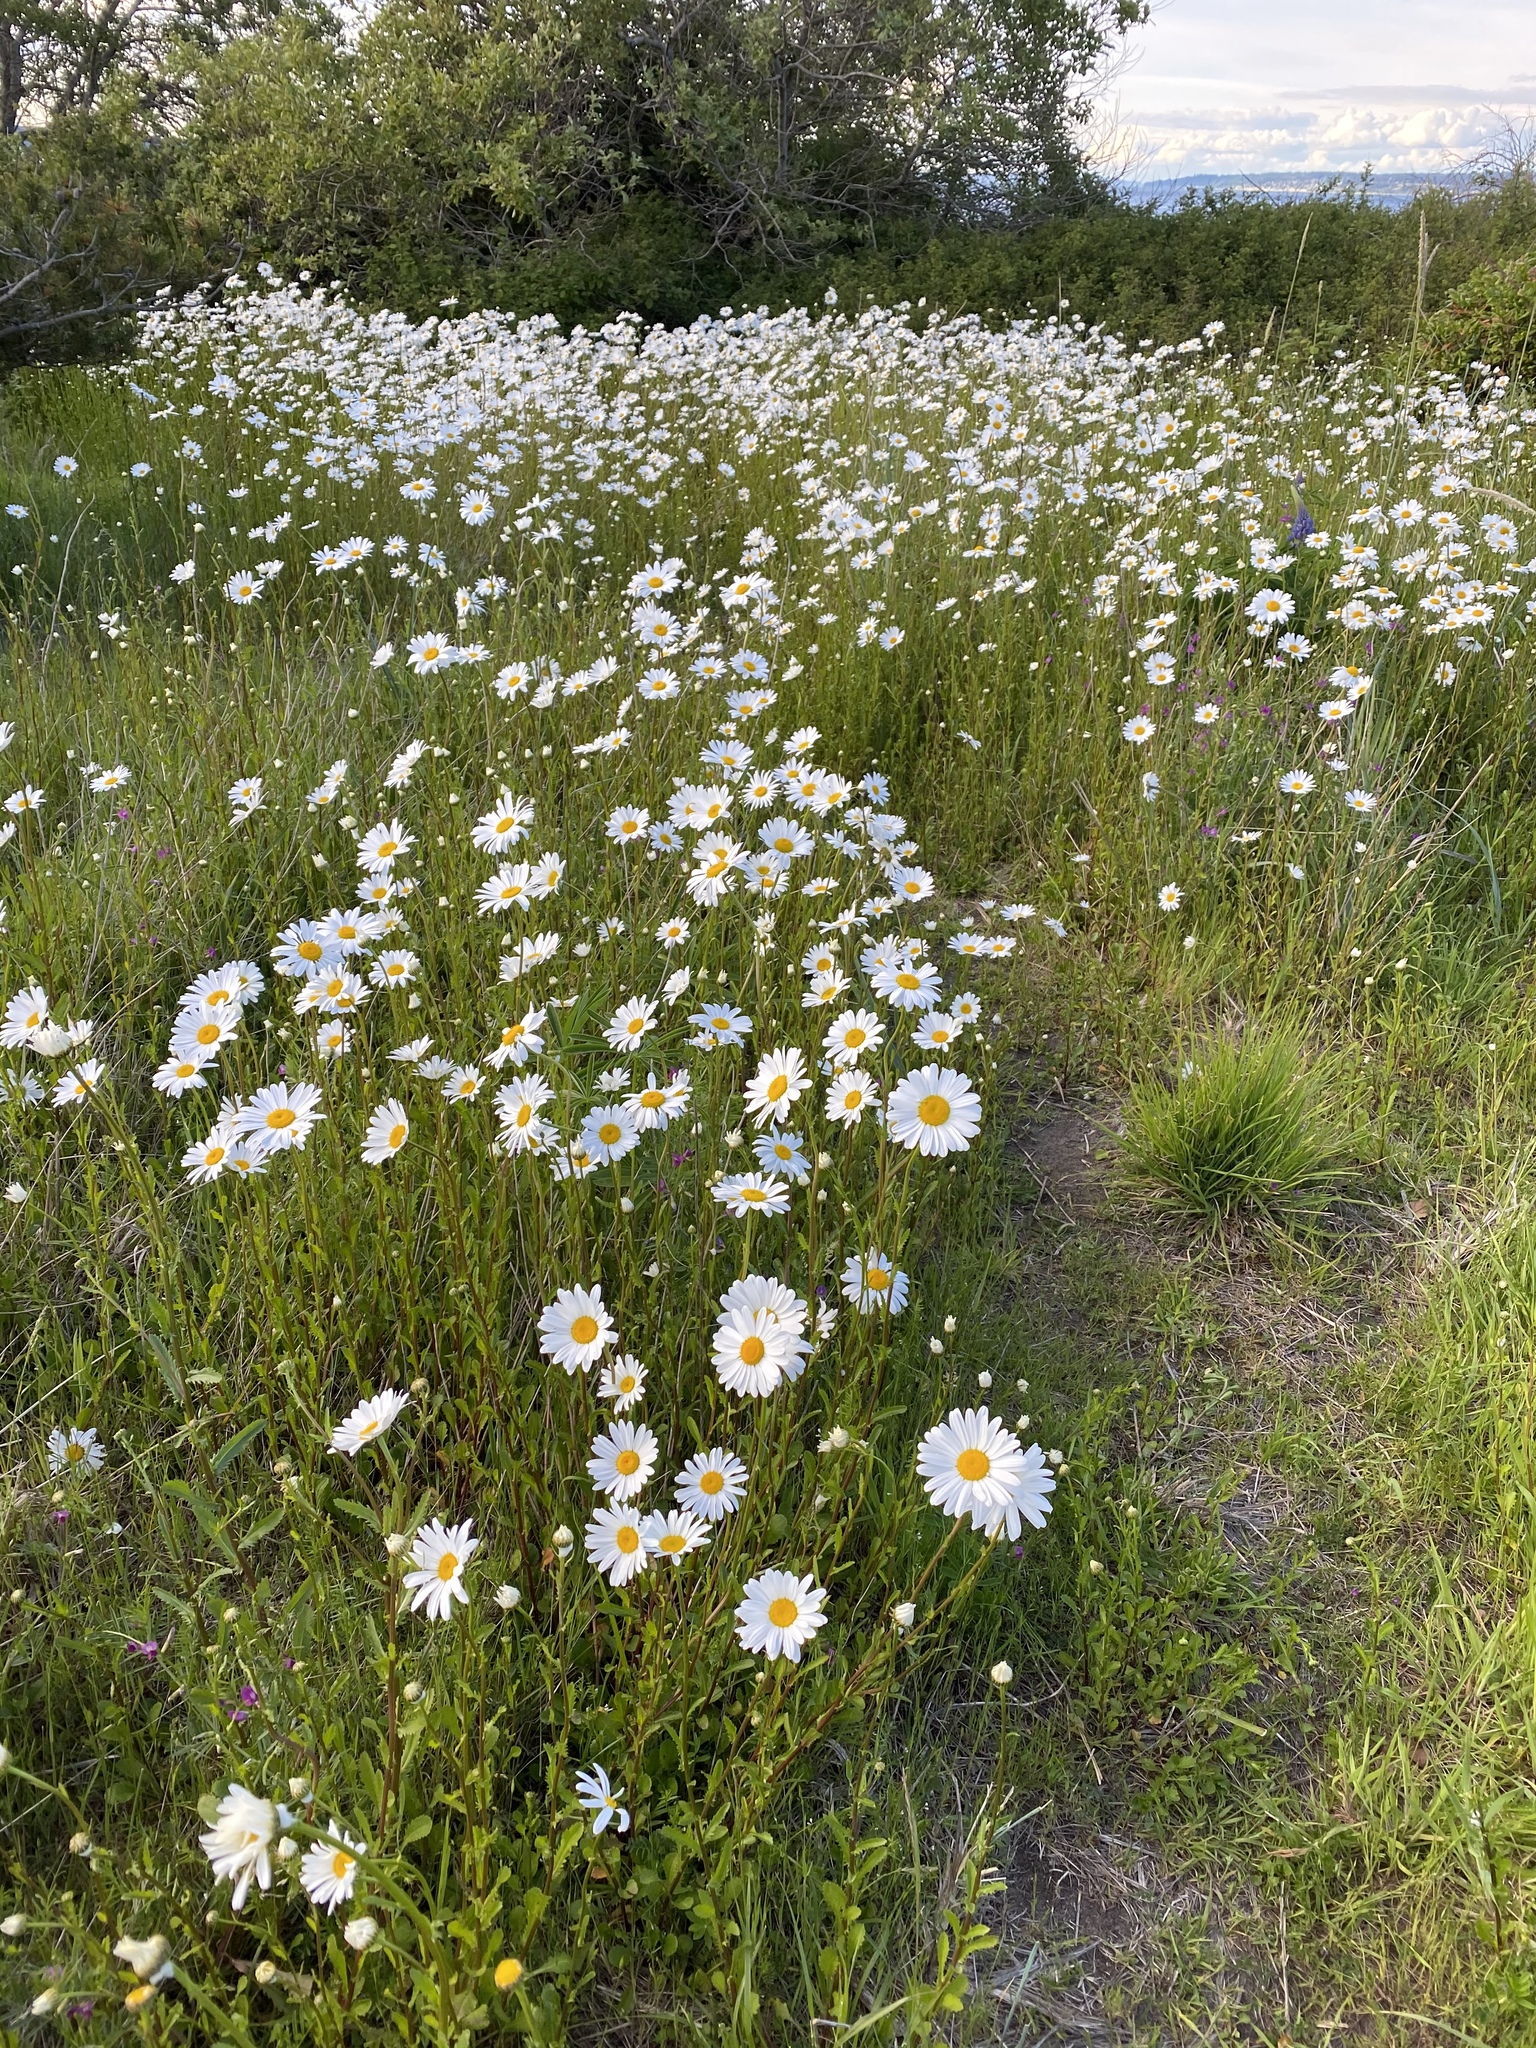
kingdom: Plantae
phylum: Tracheophyta
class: Magnoliopsida
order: Asterales
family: Asteraceae
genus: Leucanthemum
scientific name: Leucanthemum vulgare
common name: Oxeye daisy
